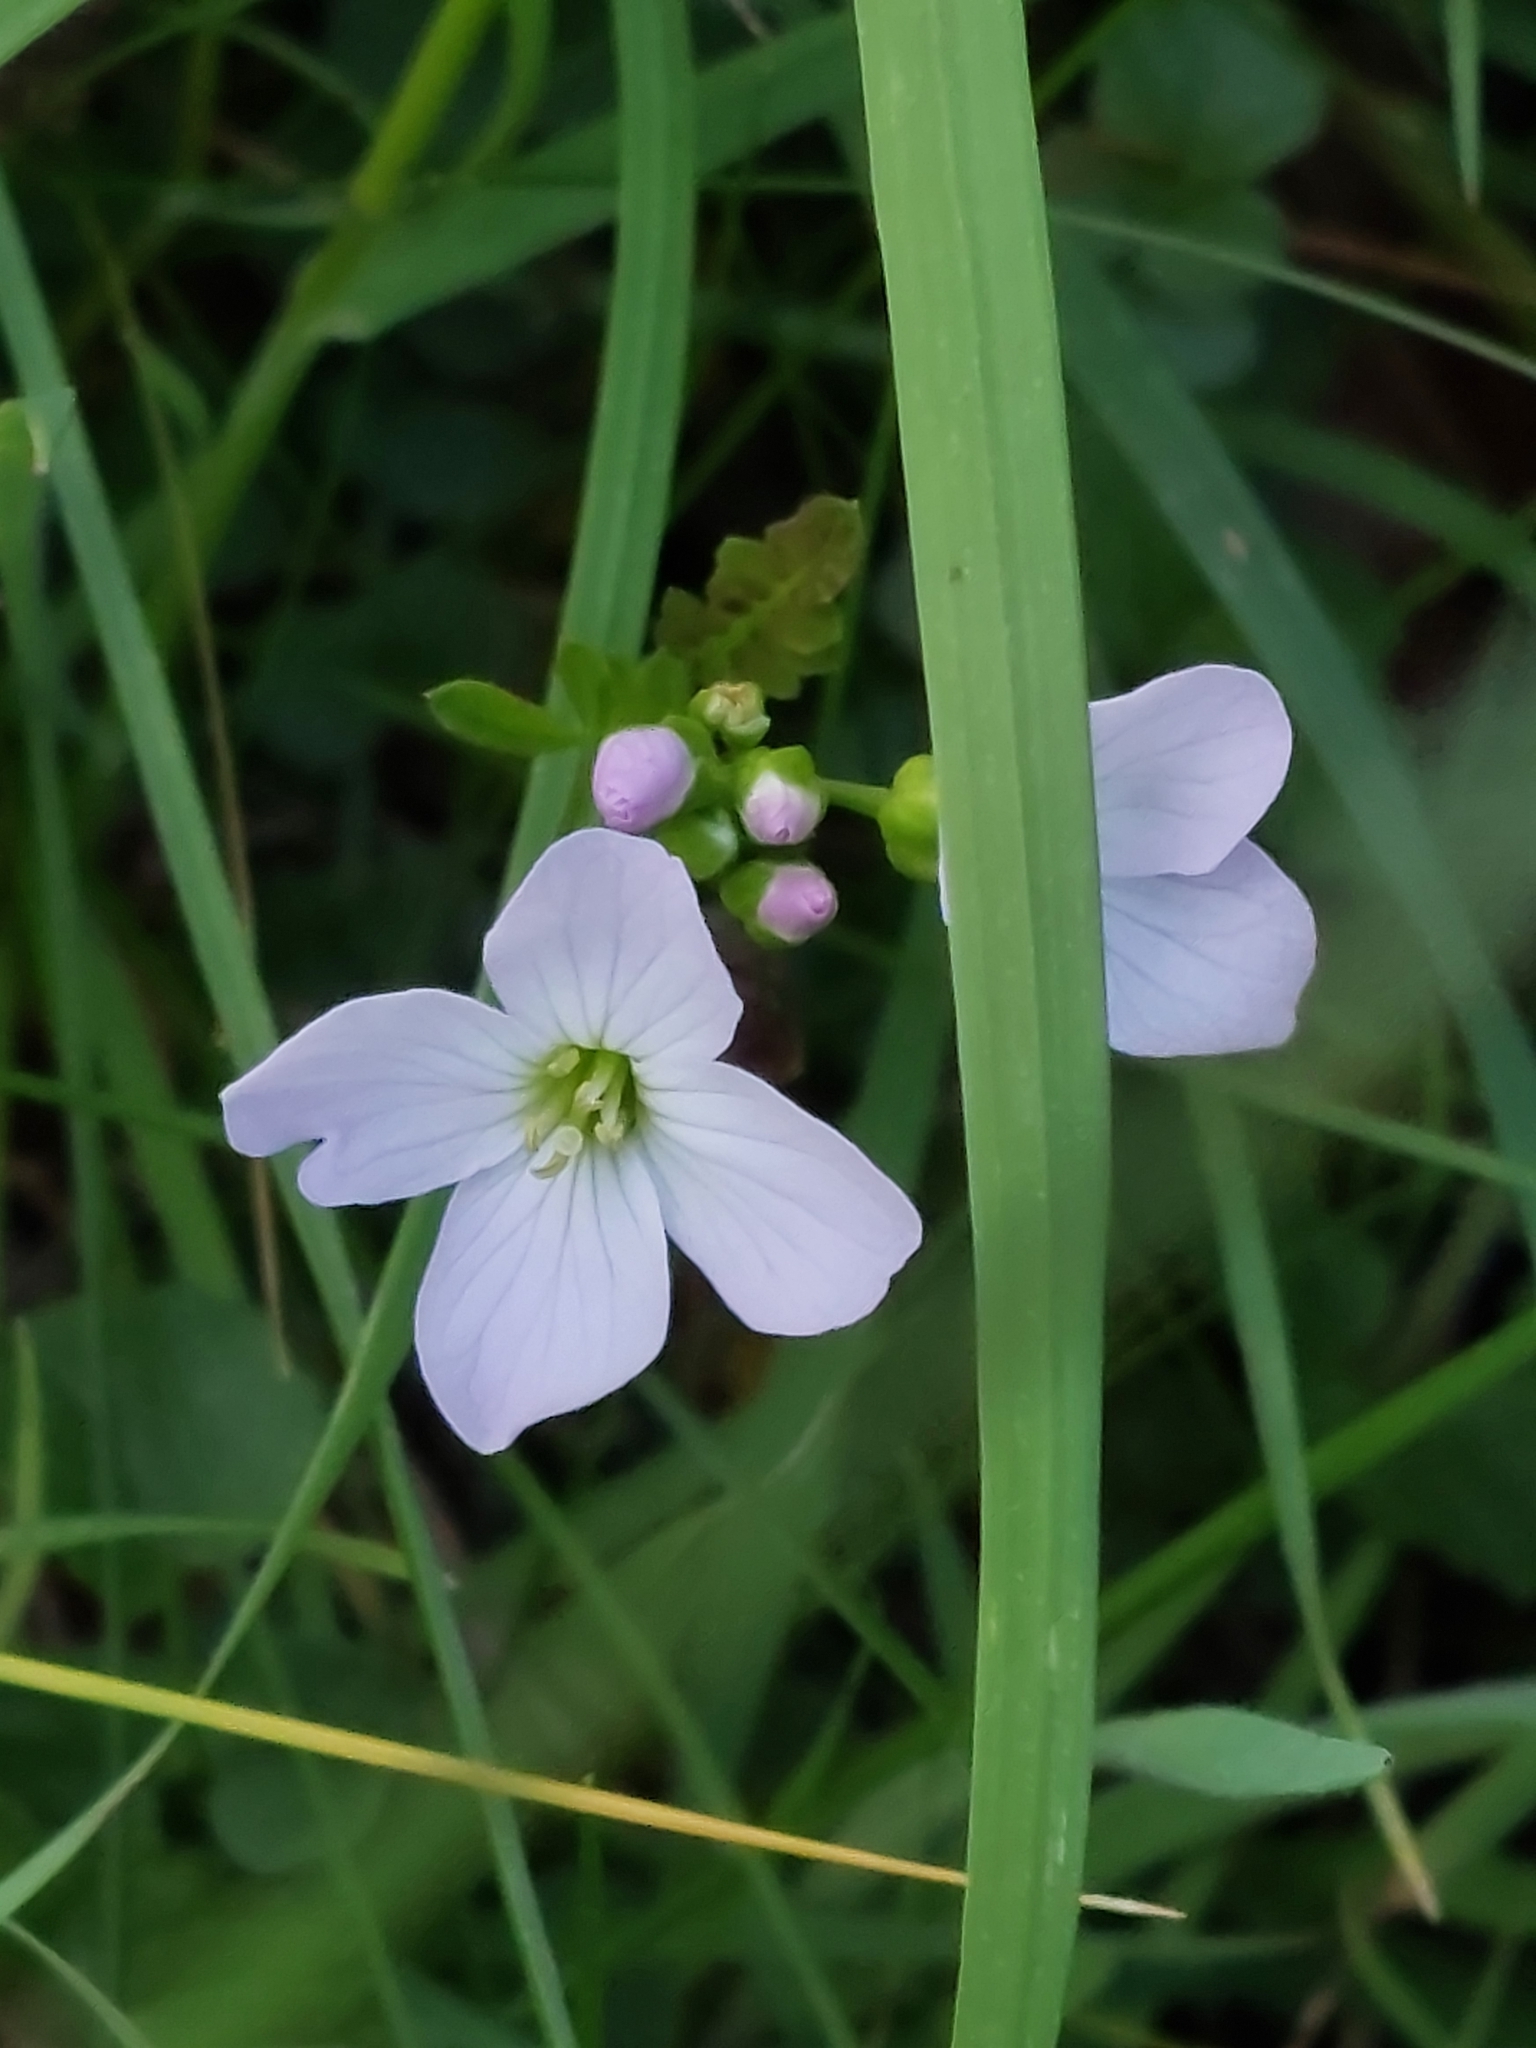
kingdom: Plantae
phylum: Tracheophyta
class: Magnoliopsida
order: Brassicales
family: Brassicaceae
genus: Cardamine
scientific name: Cardamine pratensis
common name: Cuckoo flower
